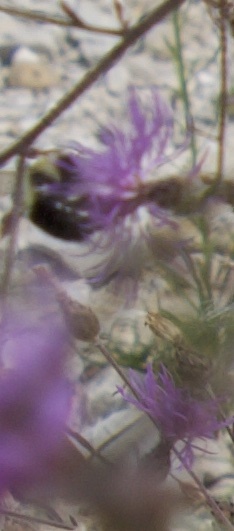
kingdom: Animalia
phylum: Arthropoda
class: Insecta
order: Hymenoptera
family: Apidae
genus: Bombus
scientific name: Bombus impatiens
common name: Common eastern bumble bee
